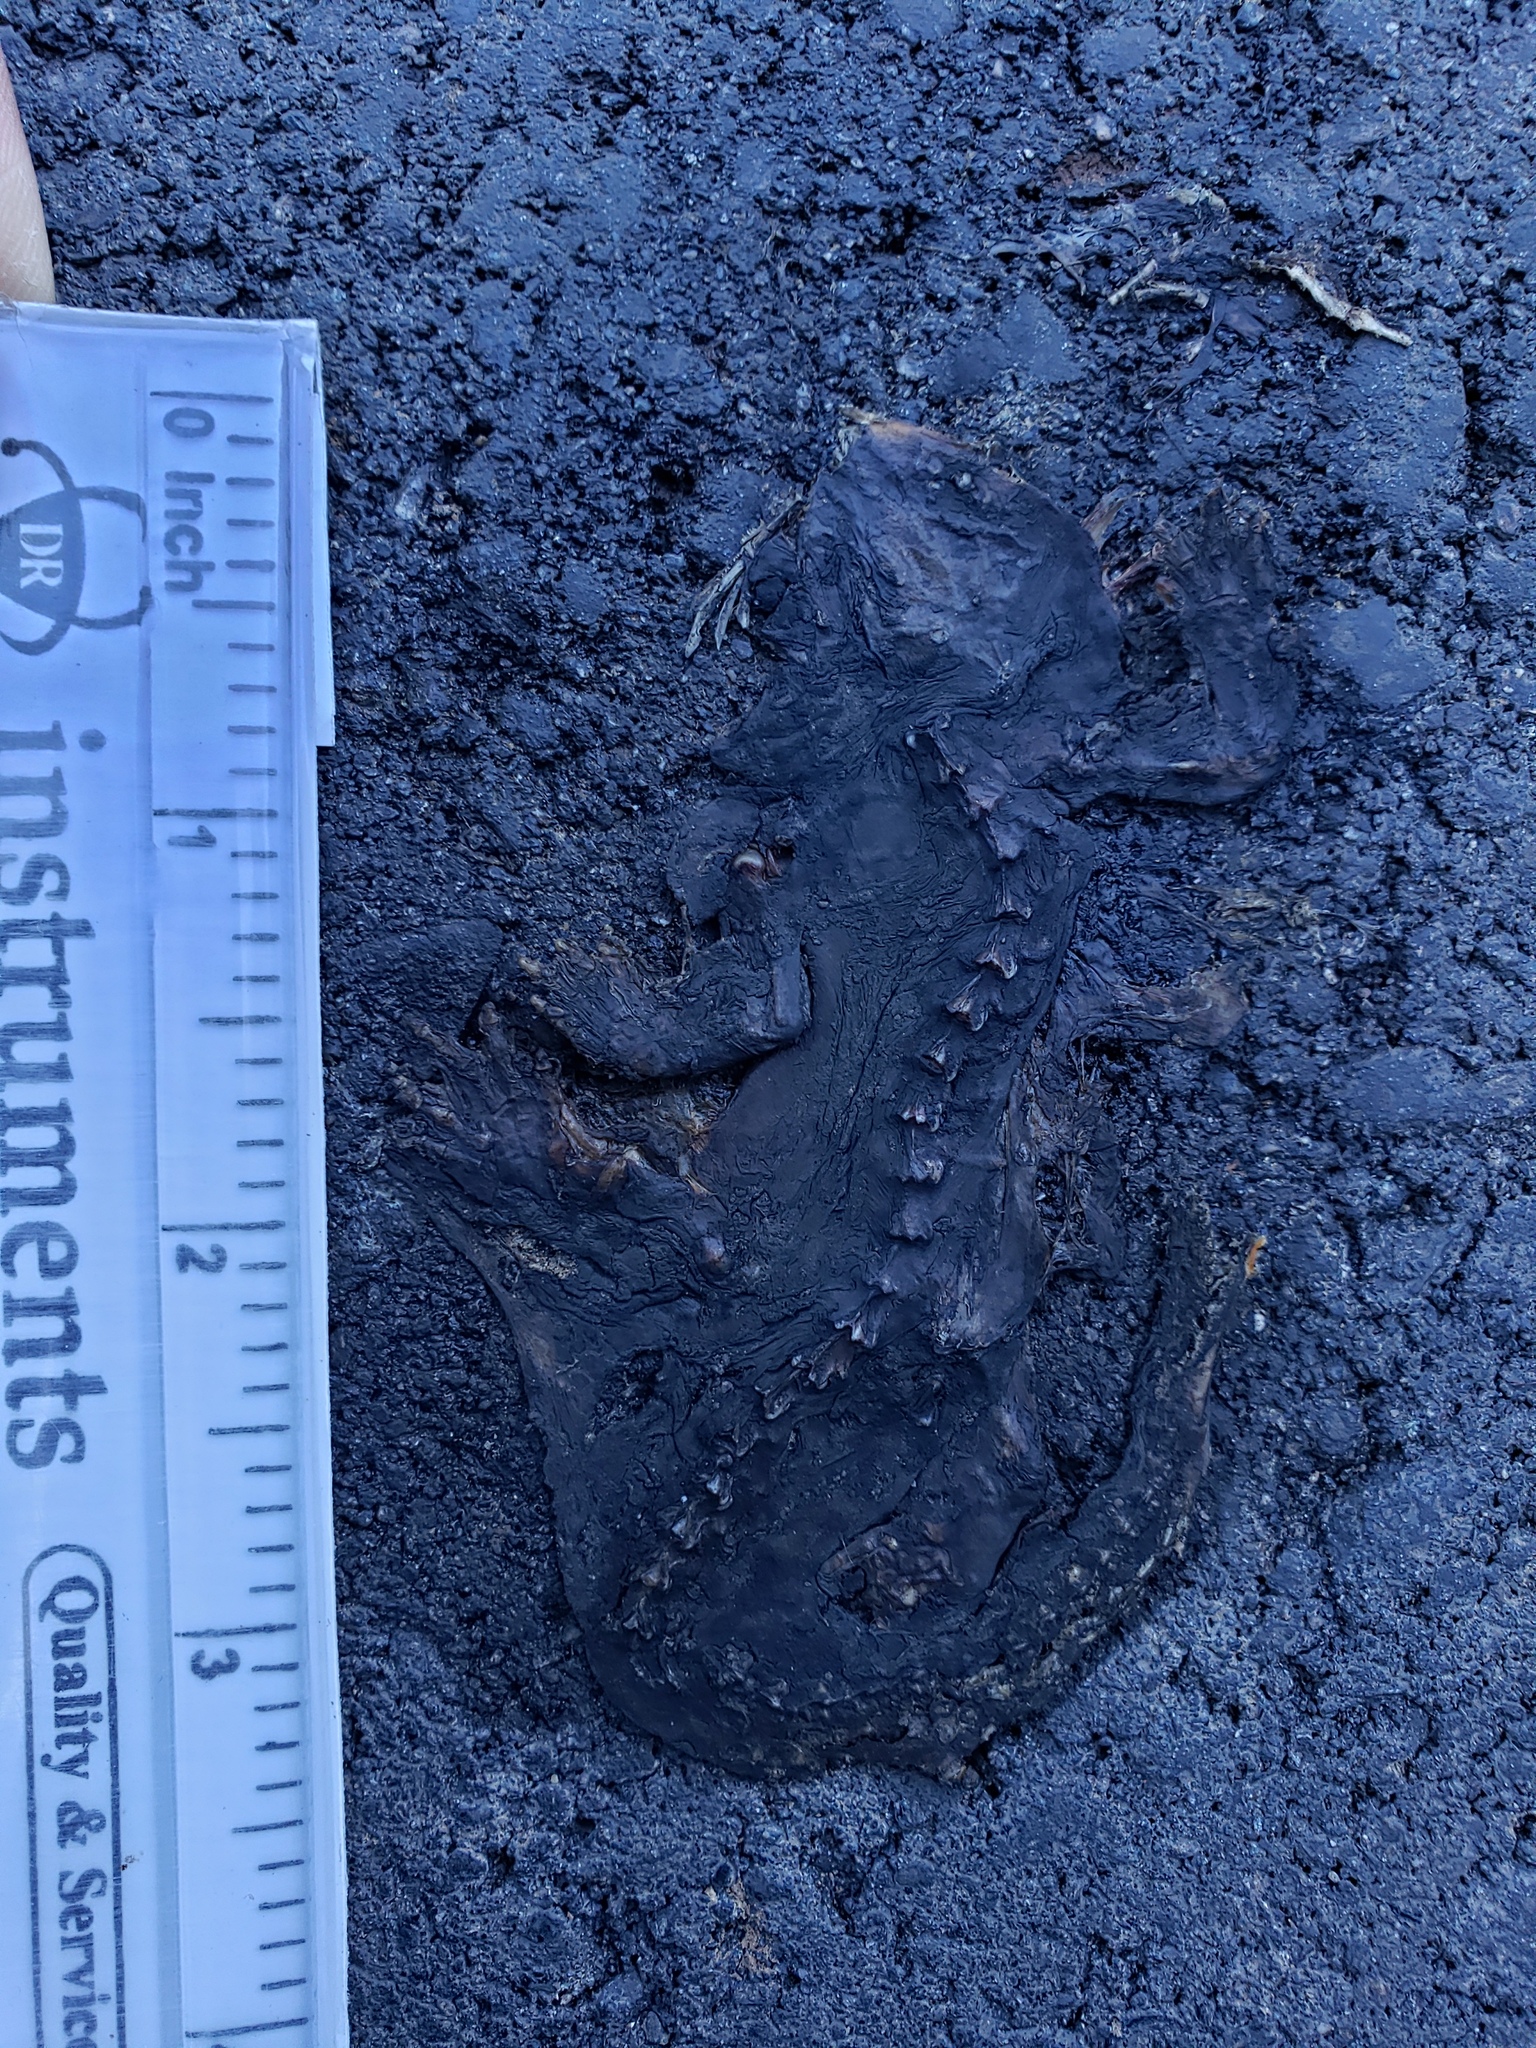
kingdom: Animalia
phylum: Chordata
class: Amphibia
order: Caudata
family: Salamandridae
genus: Taricha
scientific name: Taricha
